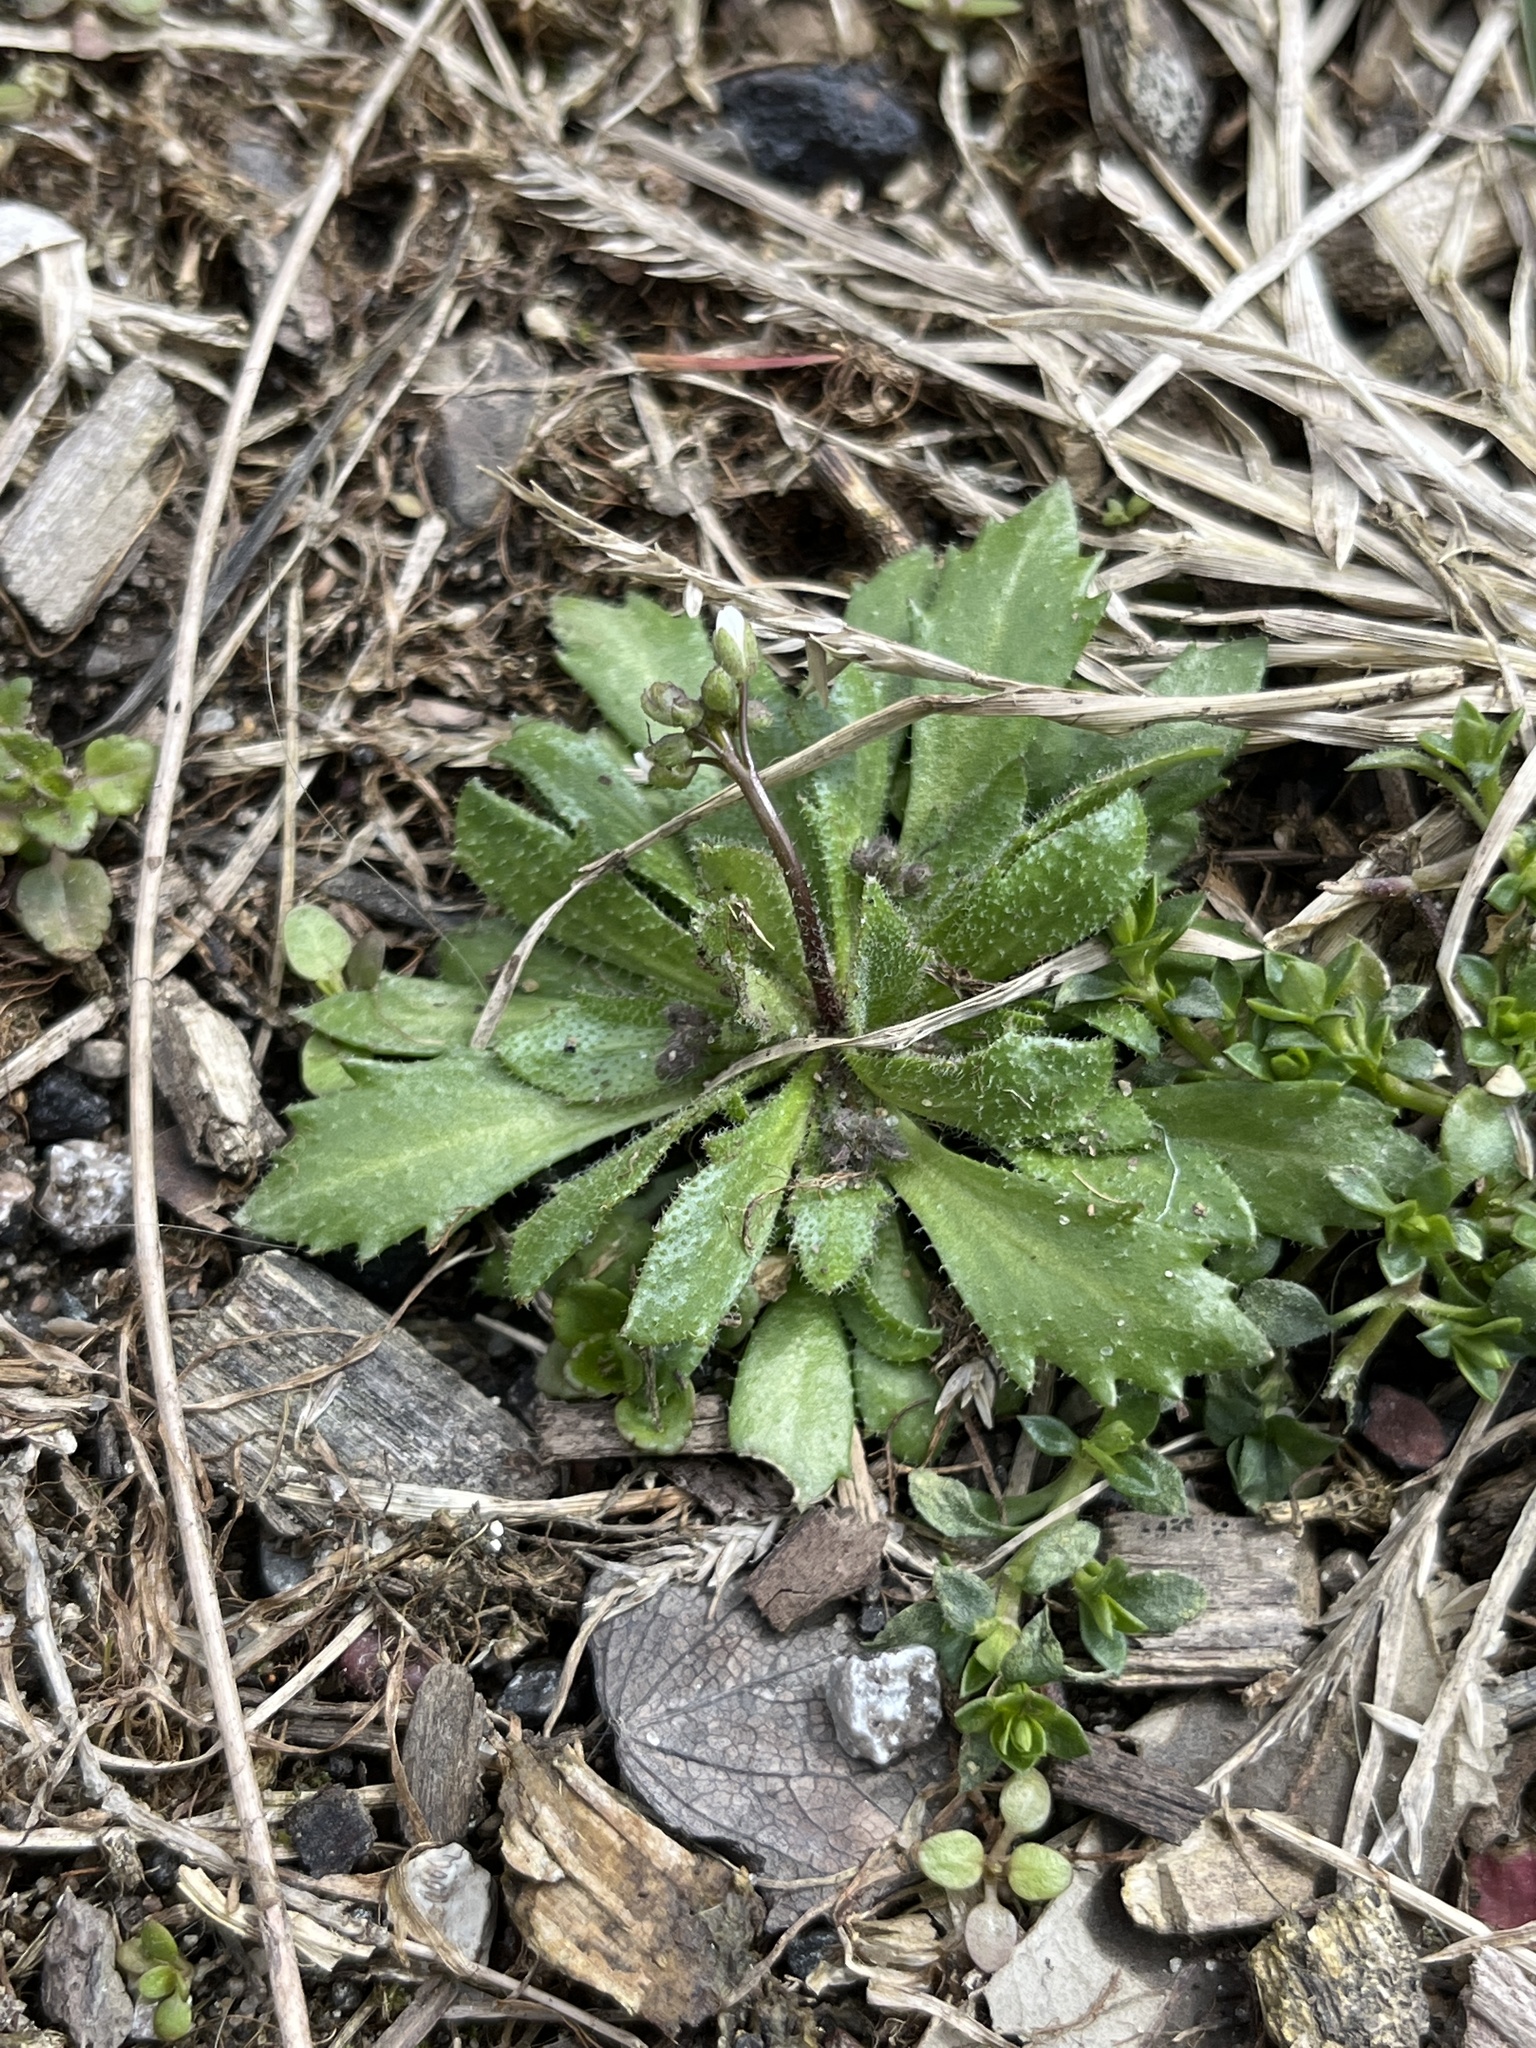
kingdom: Plantae
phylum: Tracheophyta
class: Magnoliopsida
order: Brassicales
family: Brassicaceae
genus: Draba
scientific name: Draba verna
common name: Spring draba
